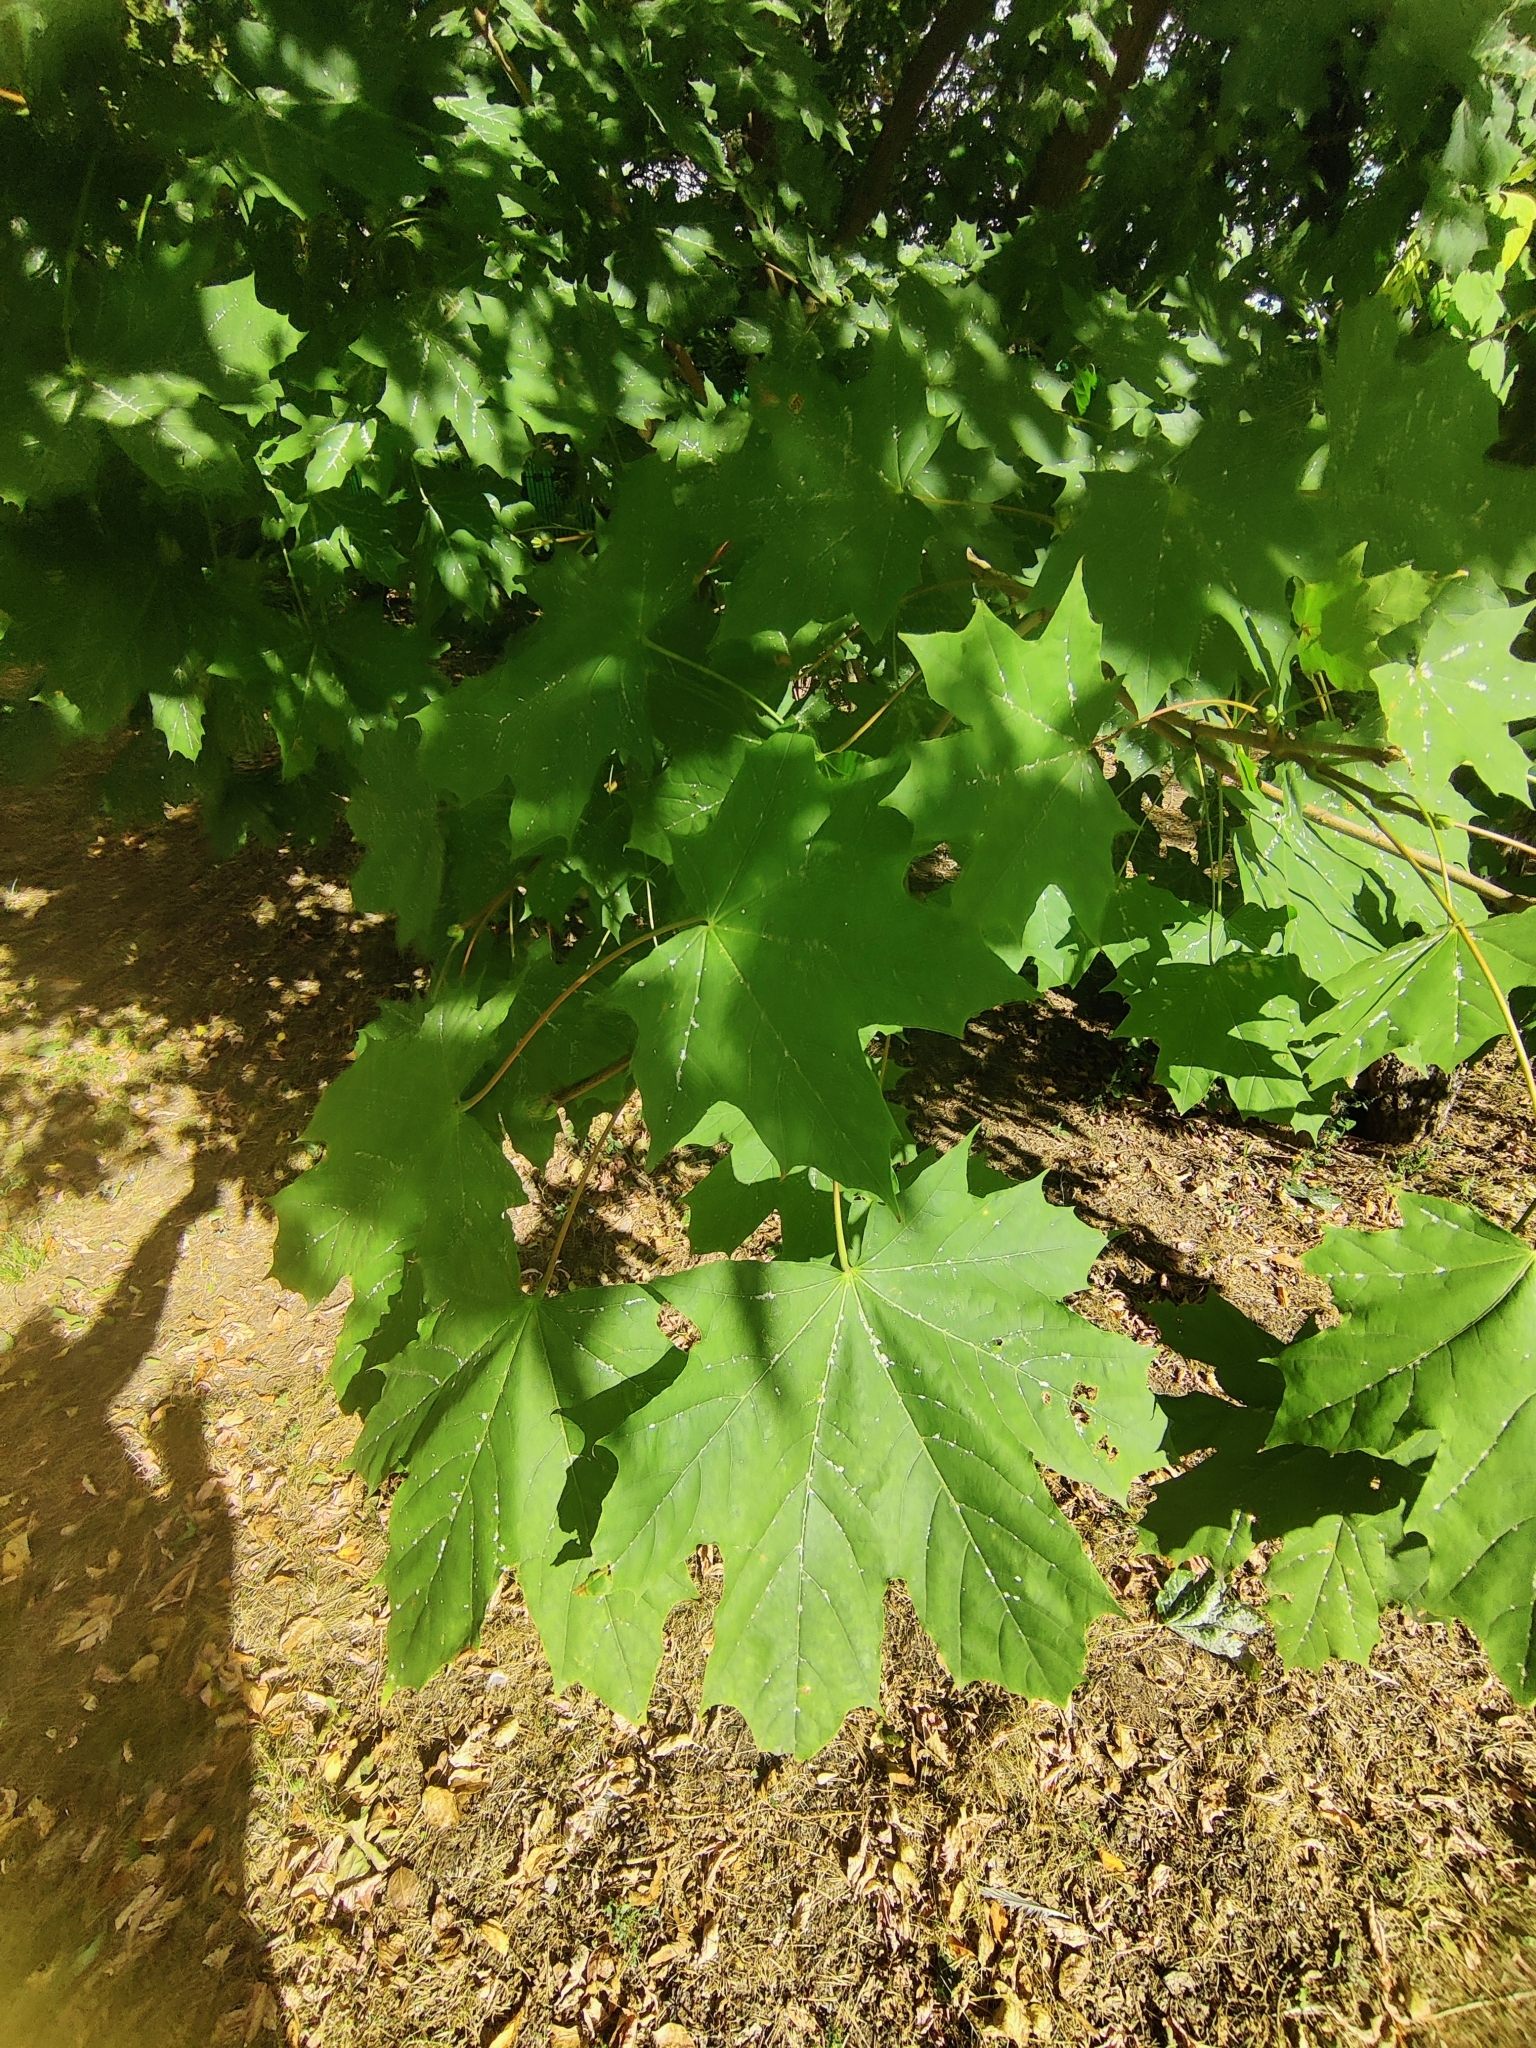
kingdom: Plantae
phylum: Tracheophyta
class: Magnoliopsida
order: Sapindales
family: Sapindaceae
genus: Acer
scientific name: Acer platanoides
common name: Norway maple
